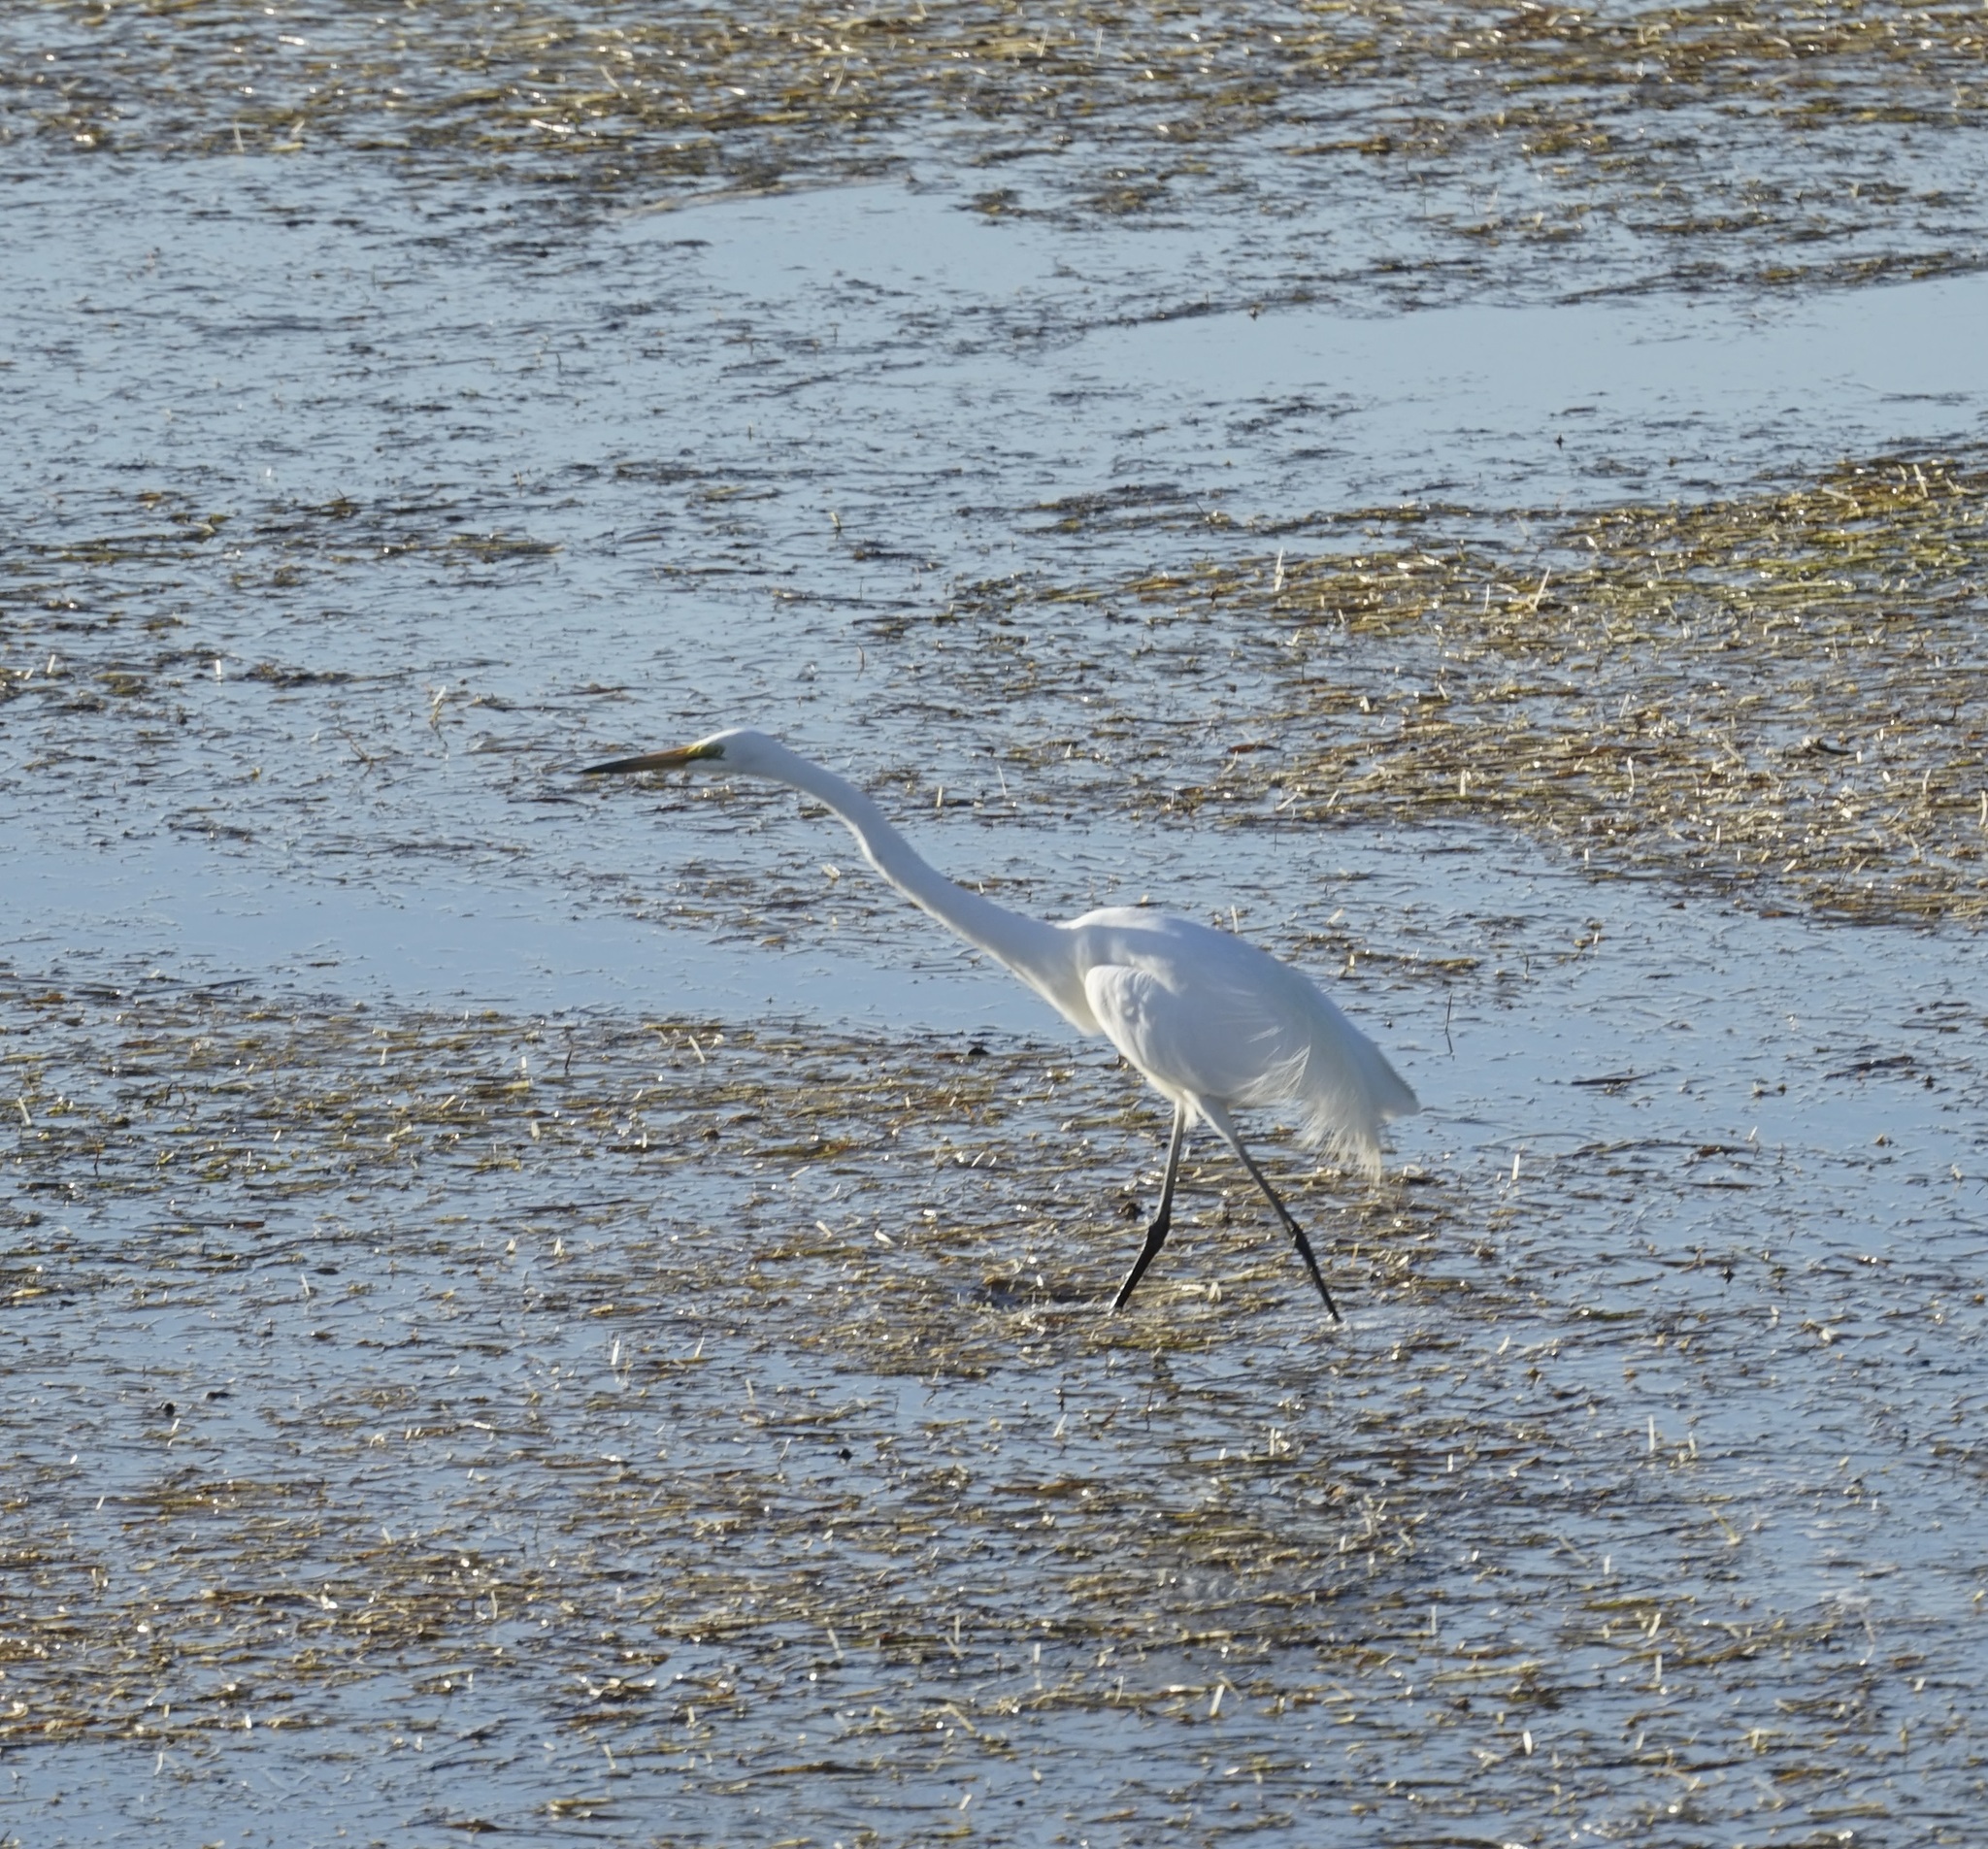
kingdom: Animalia
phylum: Chordata
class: Aves
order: Pelecaniformes
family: Ardeidae
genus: Ardea
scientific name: Ardea modesta
